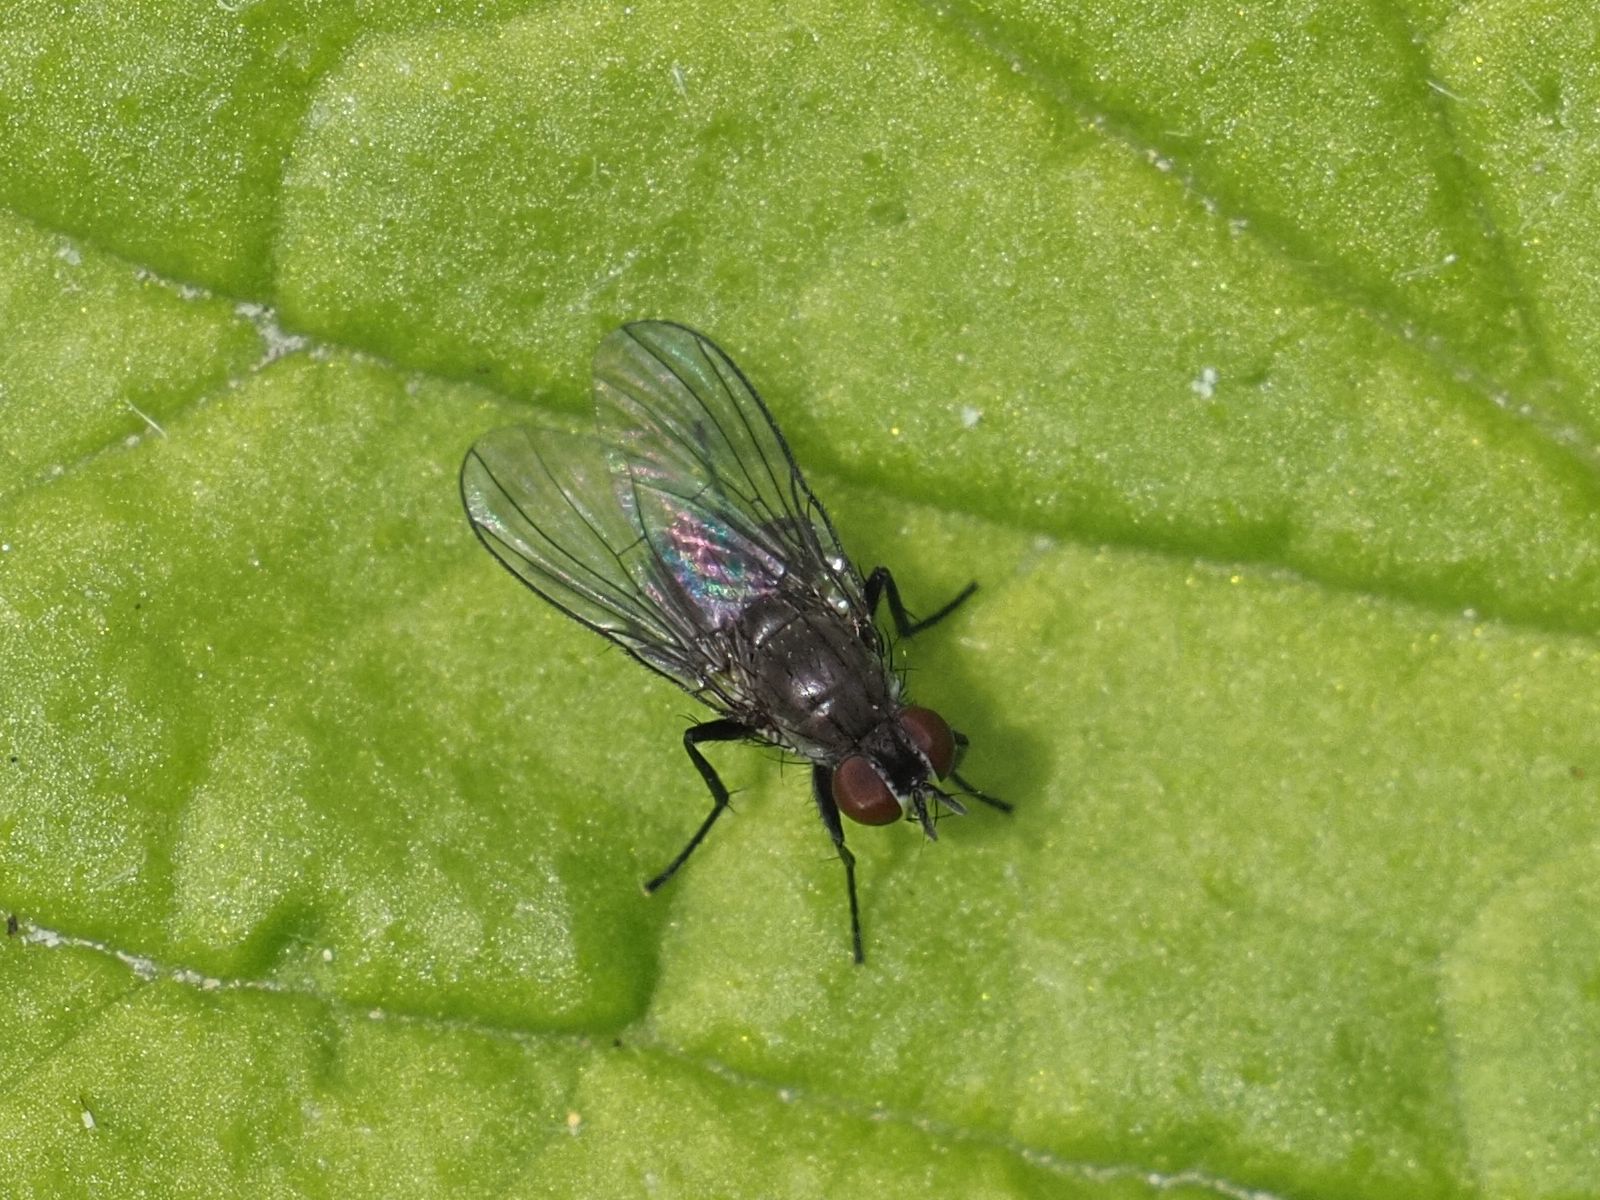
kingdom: Animalia
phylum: Arthropoda
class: Insecta
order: Diptera
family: Muscidae
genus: Coenosia
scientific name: Coenosia agromyzina
